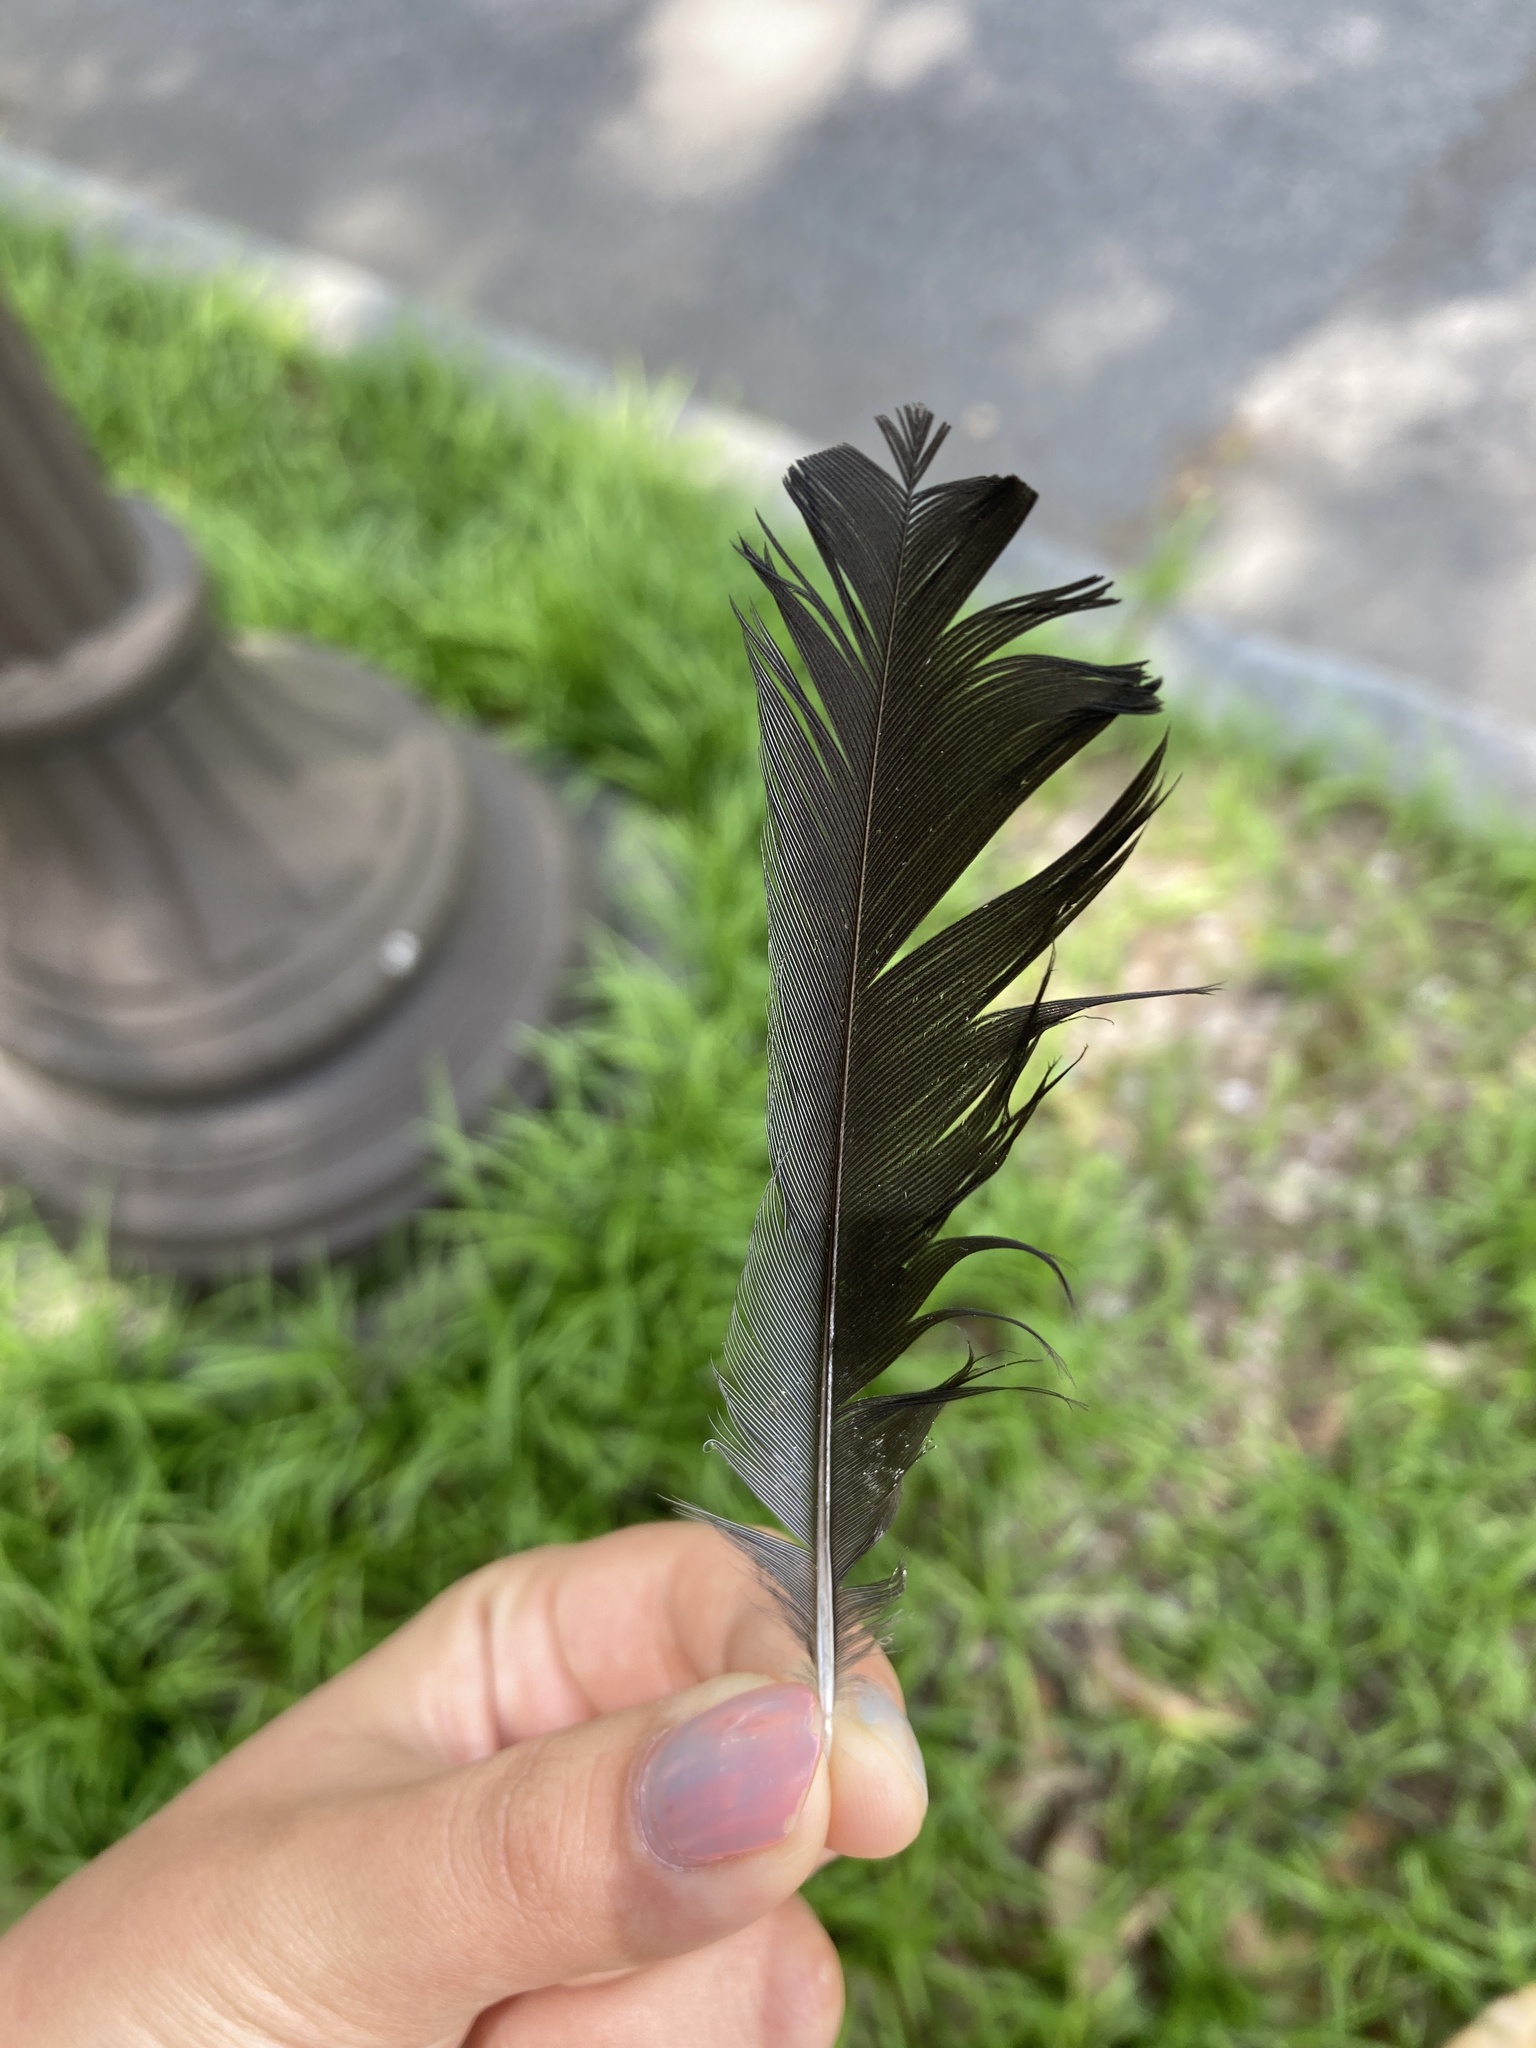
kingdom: Animalia
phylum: Chordata
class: Aves
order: Passeriformes
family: Mimidae
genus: Dumetella
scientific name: Dumetella carolinensis
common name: Gray catbird
